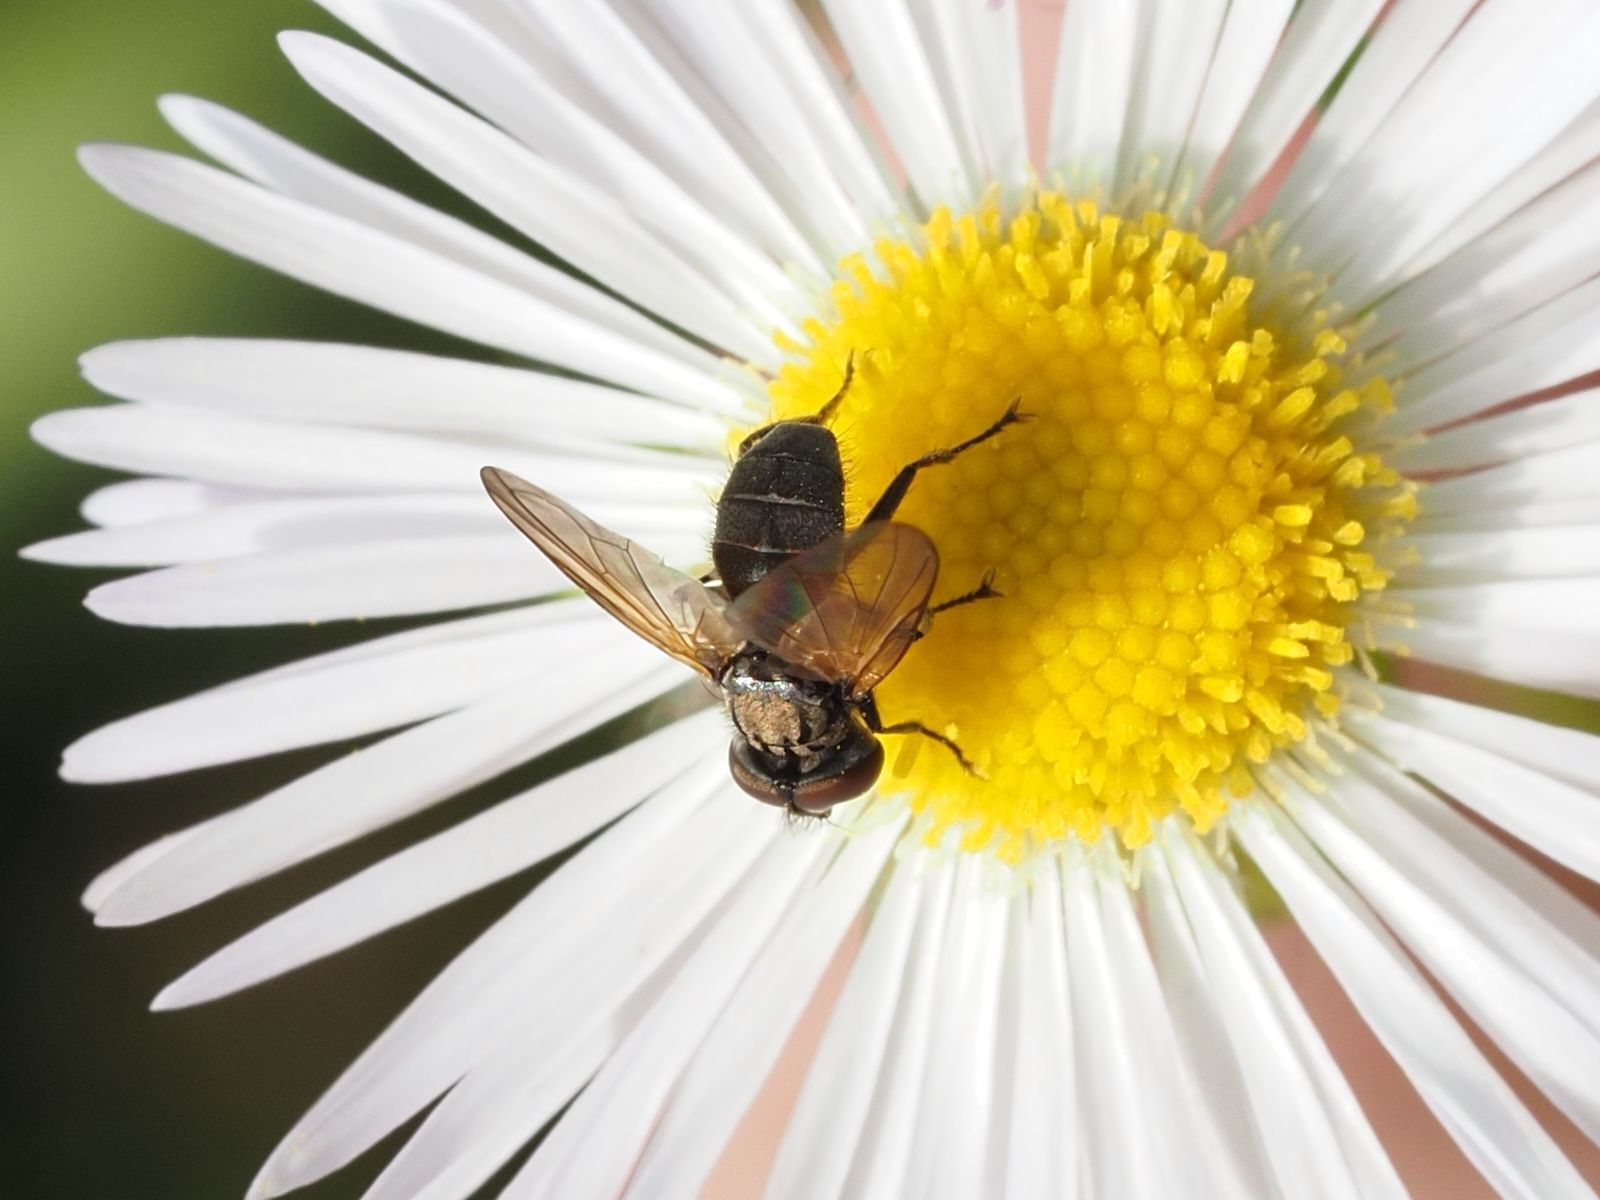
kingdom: Animalia
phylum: Arthropoda
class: Insecta
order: Diptera
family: Tachinidae
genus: Phasia
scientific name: Phasia obesa
